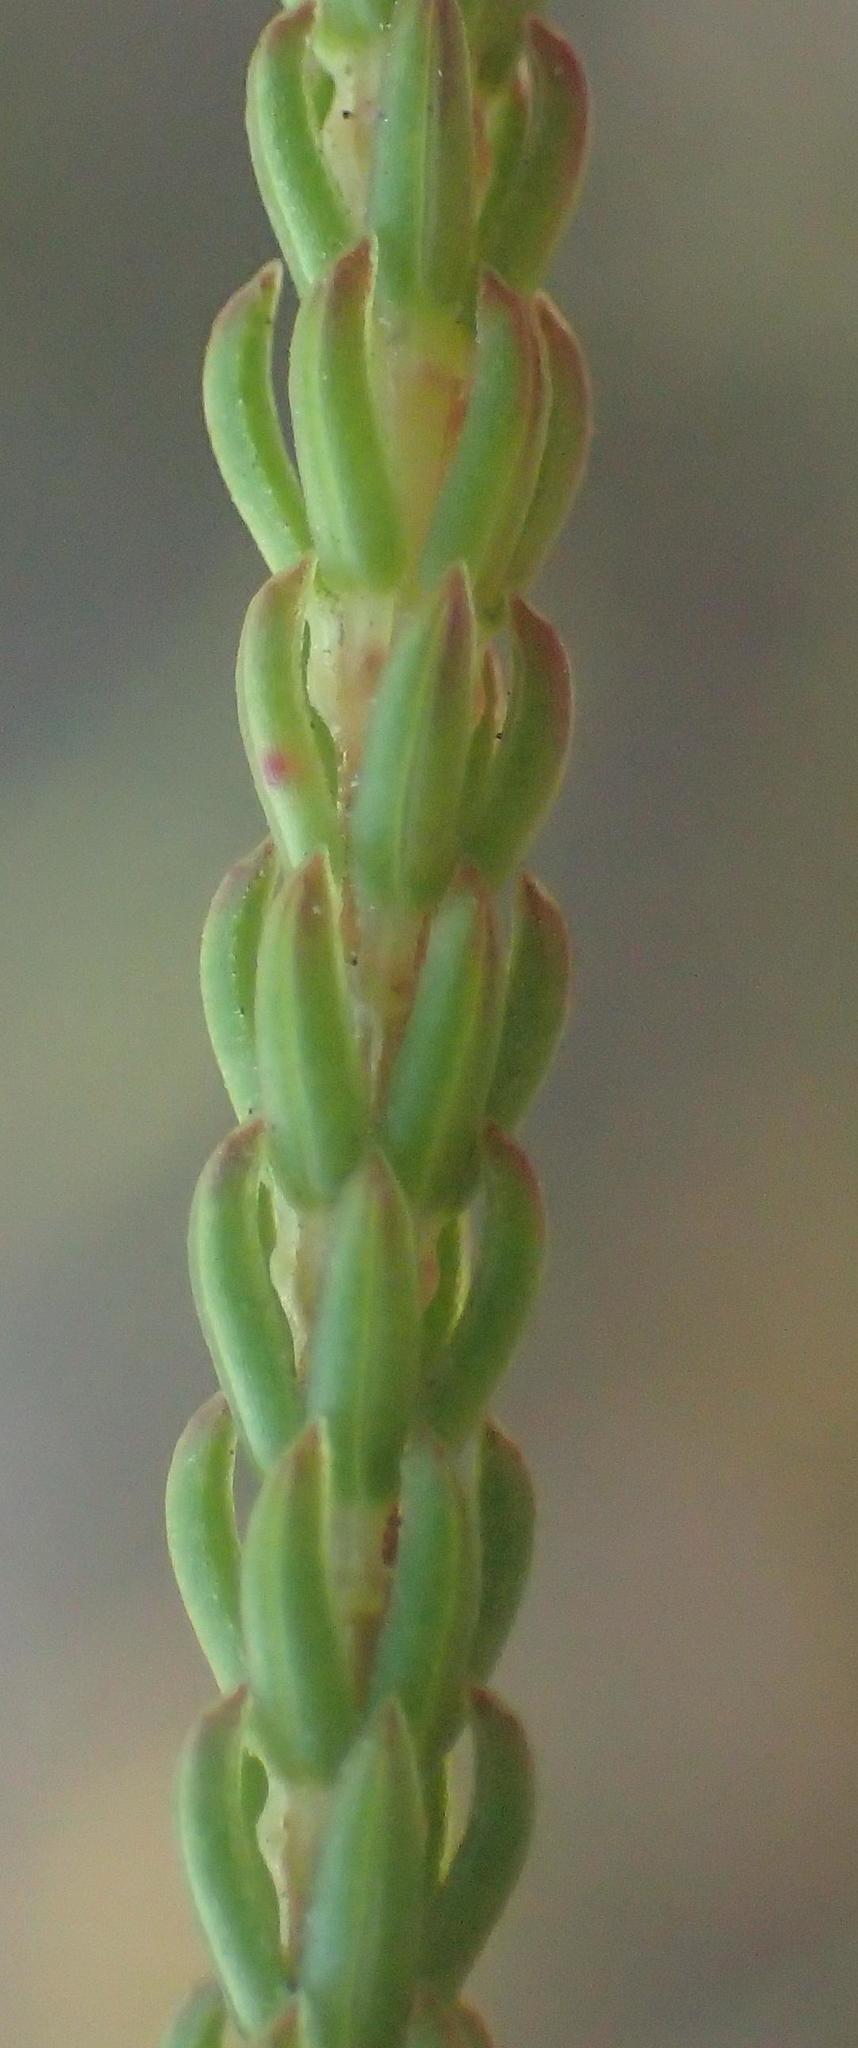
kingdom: Plantae
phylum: Tracheophyta
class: Magnoliopsida
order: Ericales
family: Ericaceae
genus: Erica
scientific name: Erica seriphiifolia
